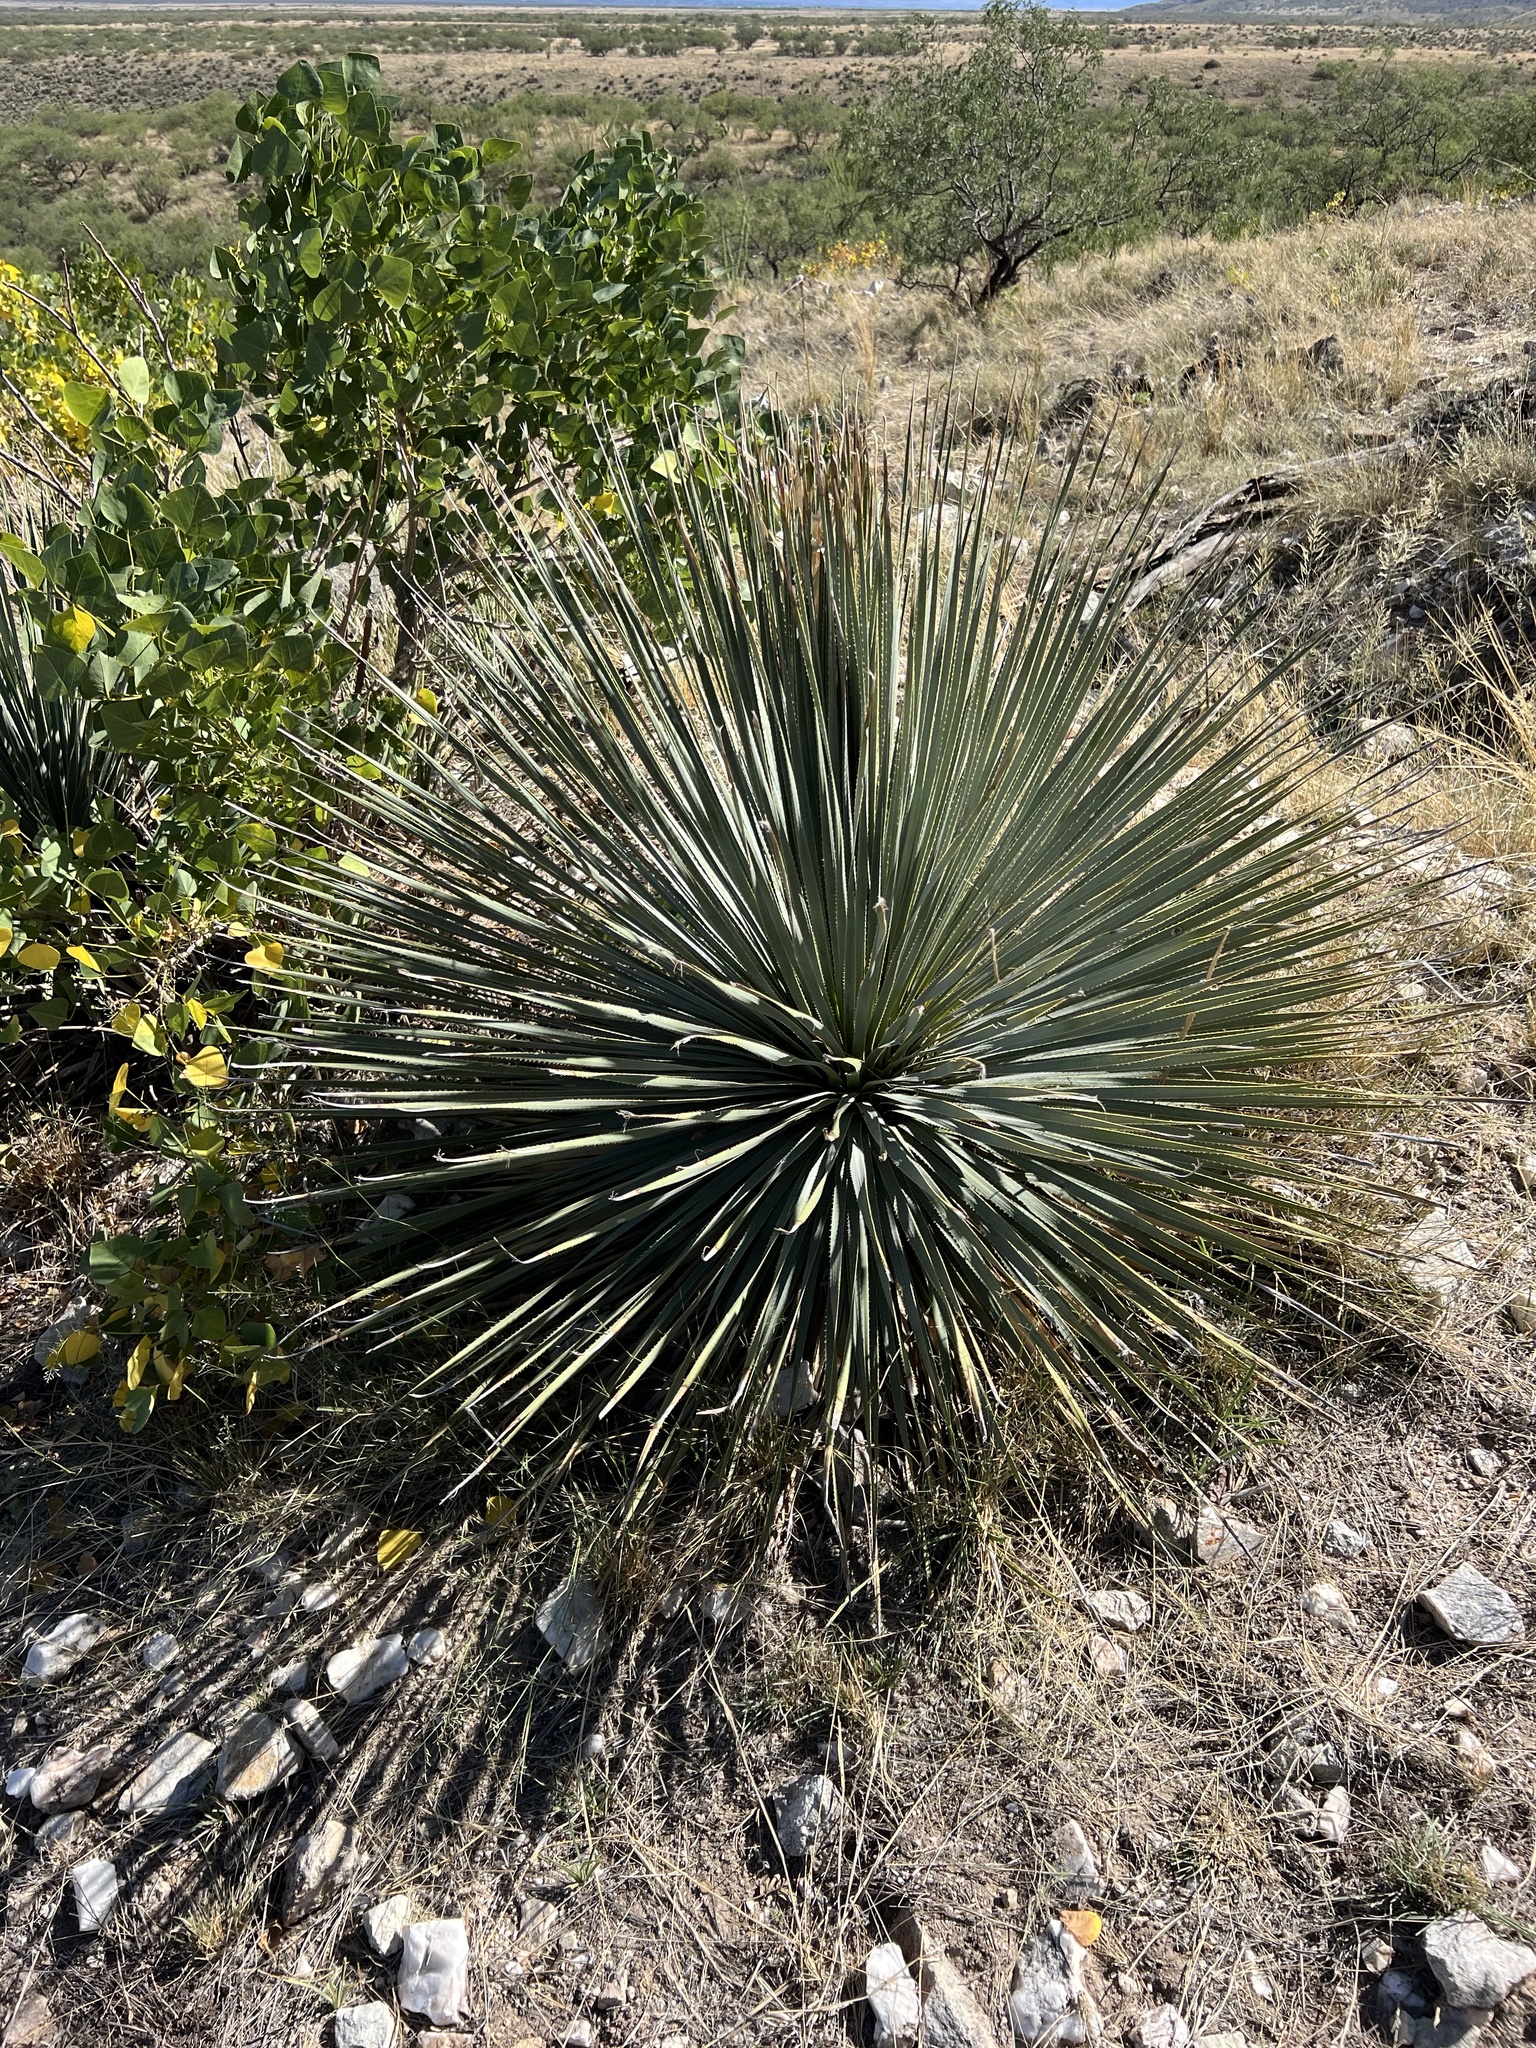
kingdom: Plantae
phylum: Tracheophyta
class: Liliopsida
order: Asparagales
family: Asparagaceae
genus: Dasylirion
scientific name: Dasylirion wheeleri
